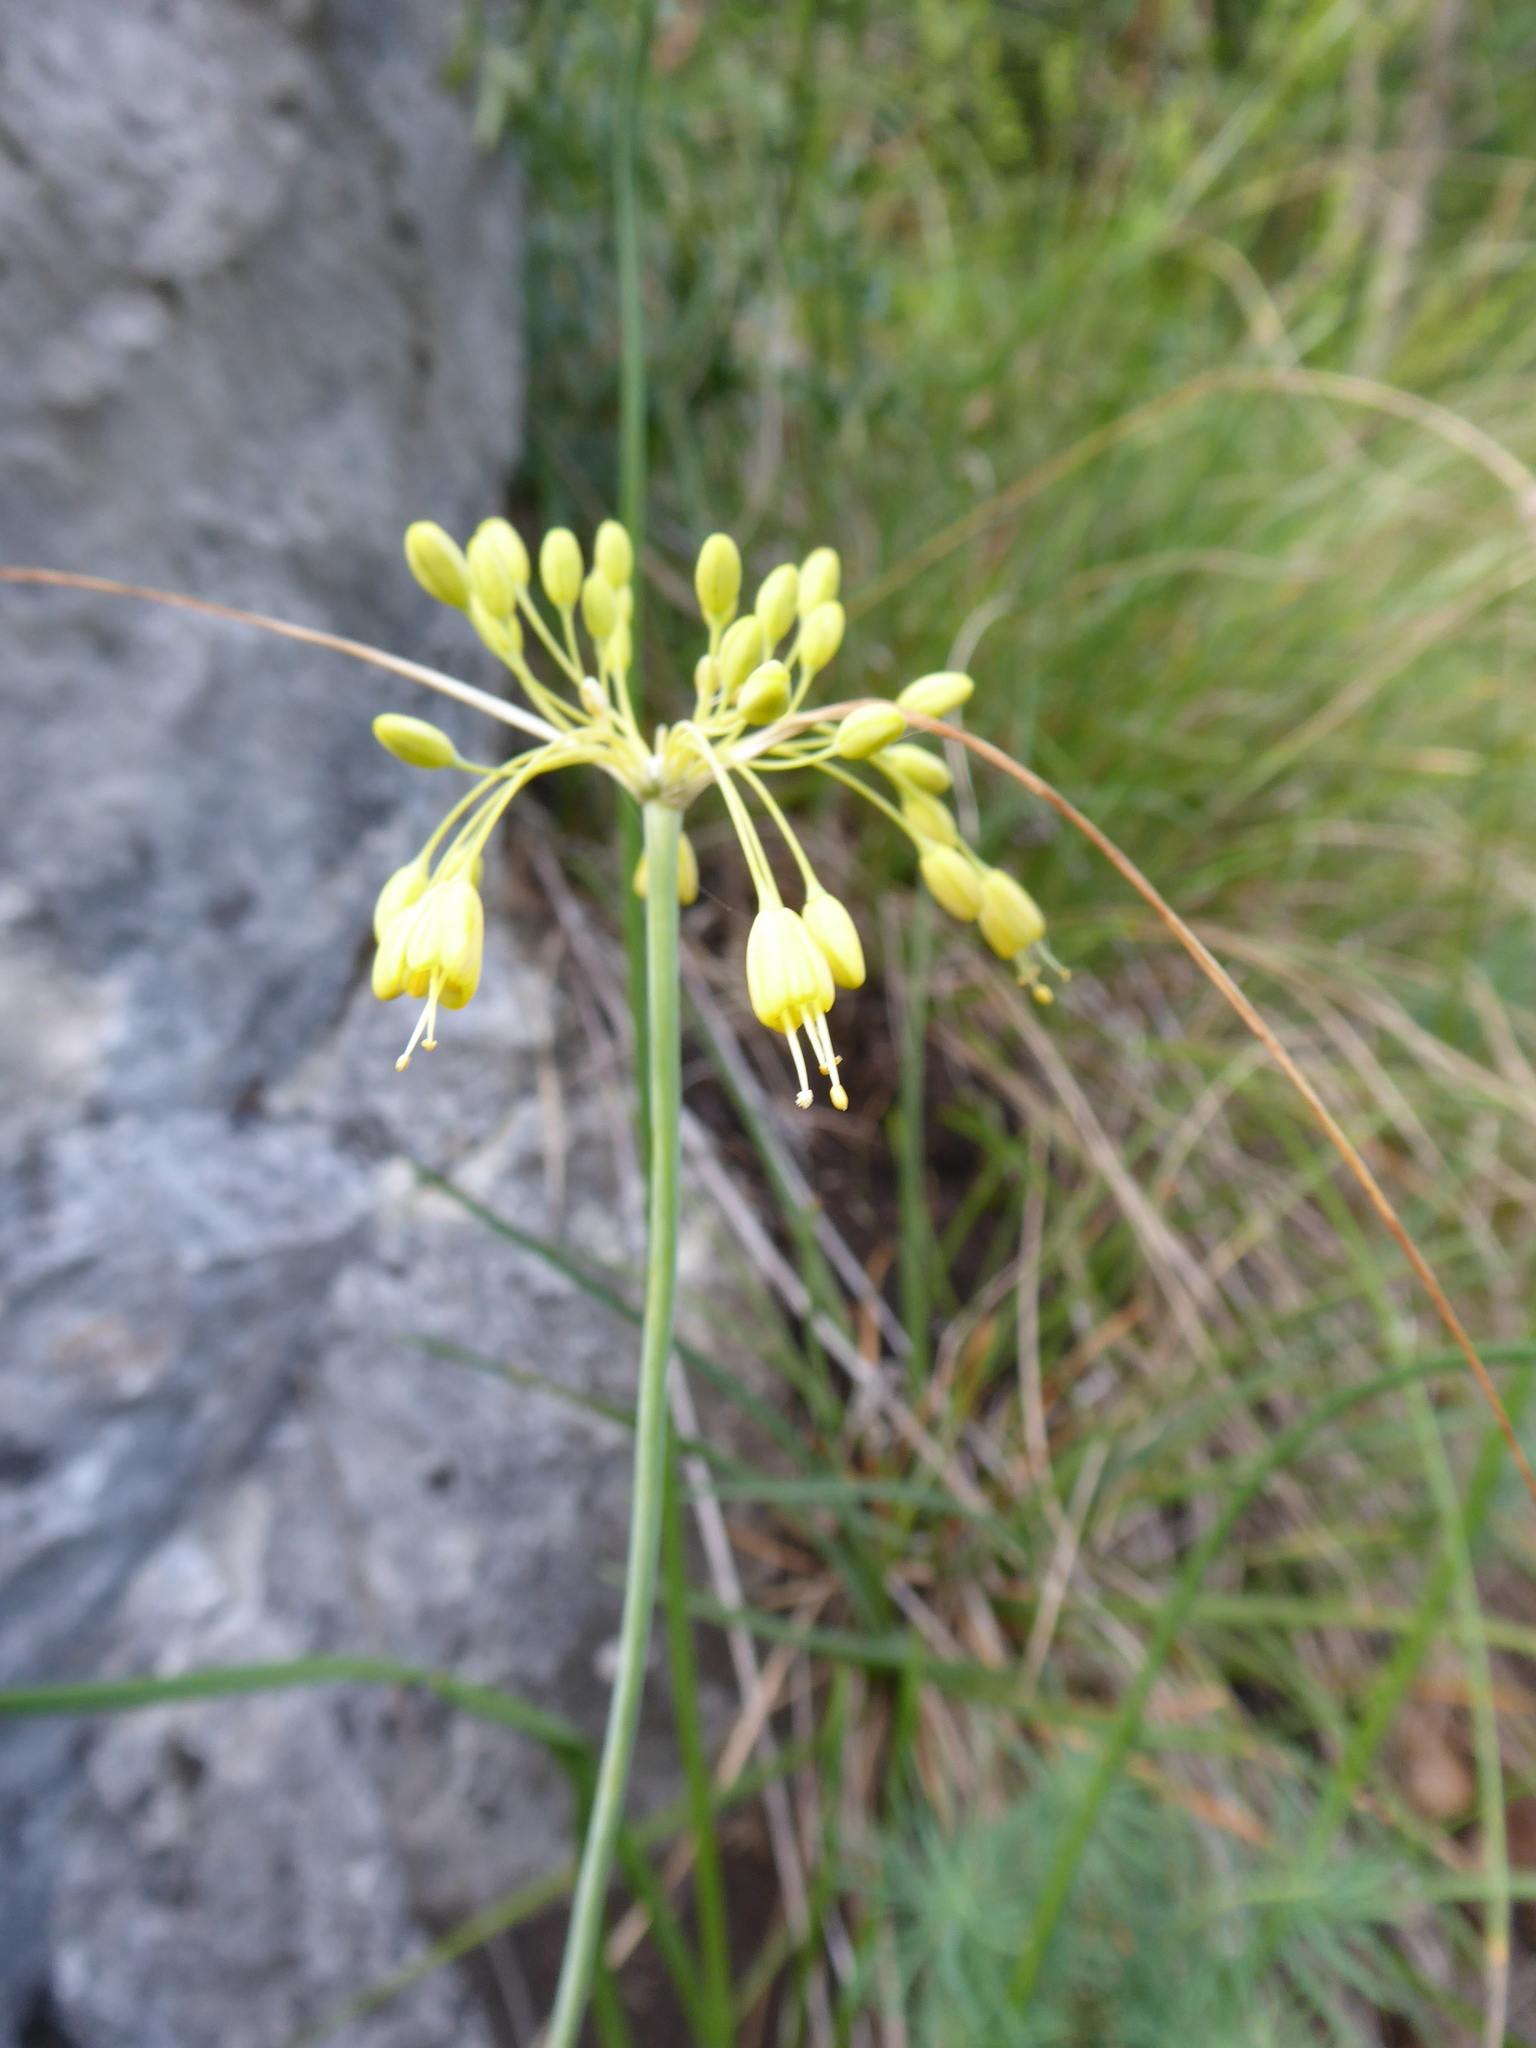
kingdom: Plantae
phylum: Tracheophyta
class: Liliopsida
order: Asparagales
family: Amaryllidaceae
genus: Allium
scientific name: Allium flavum
